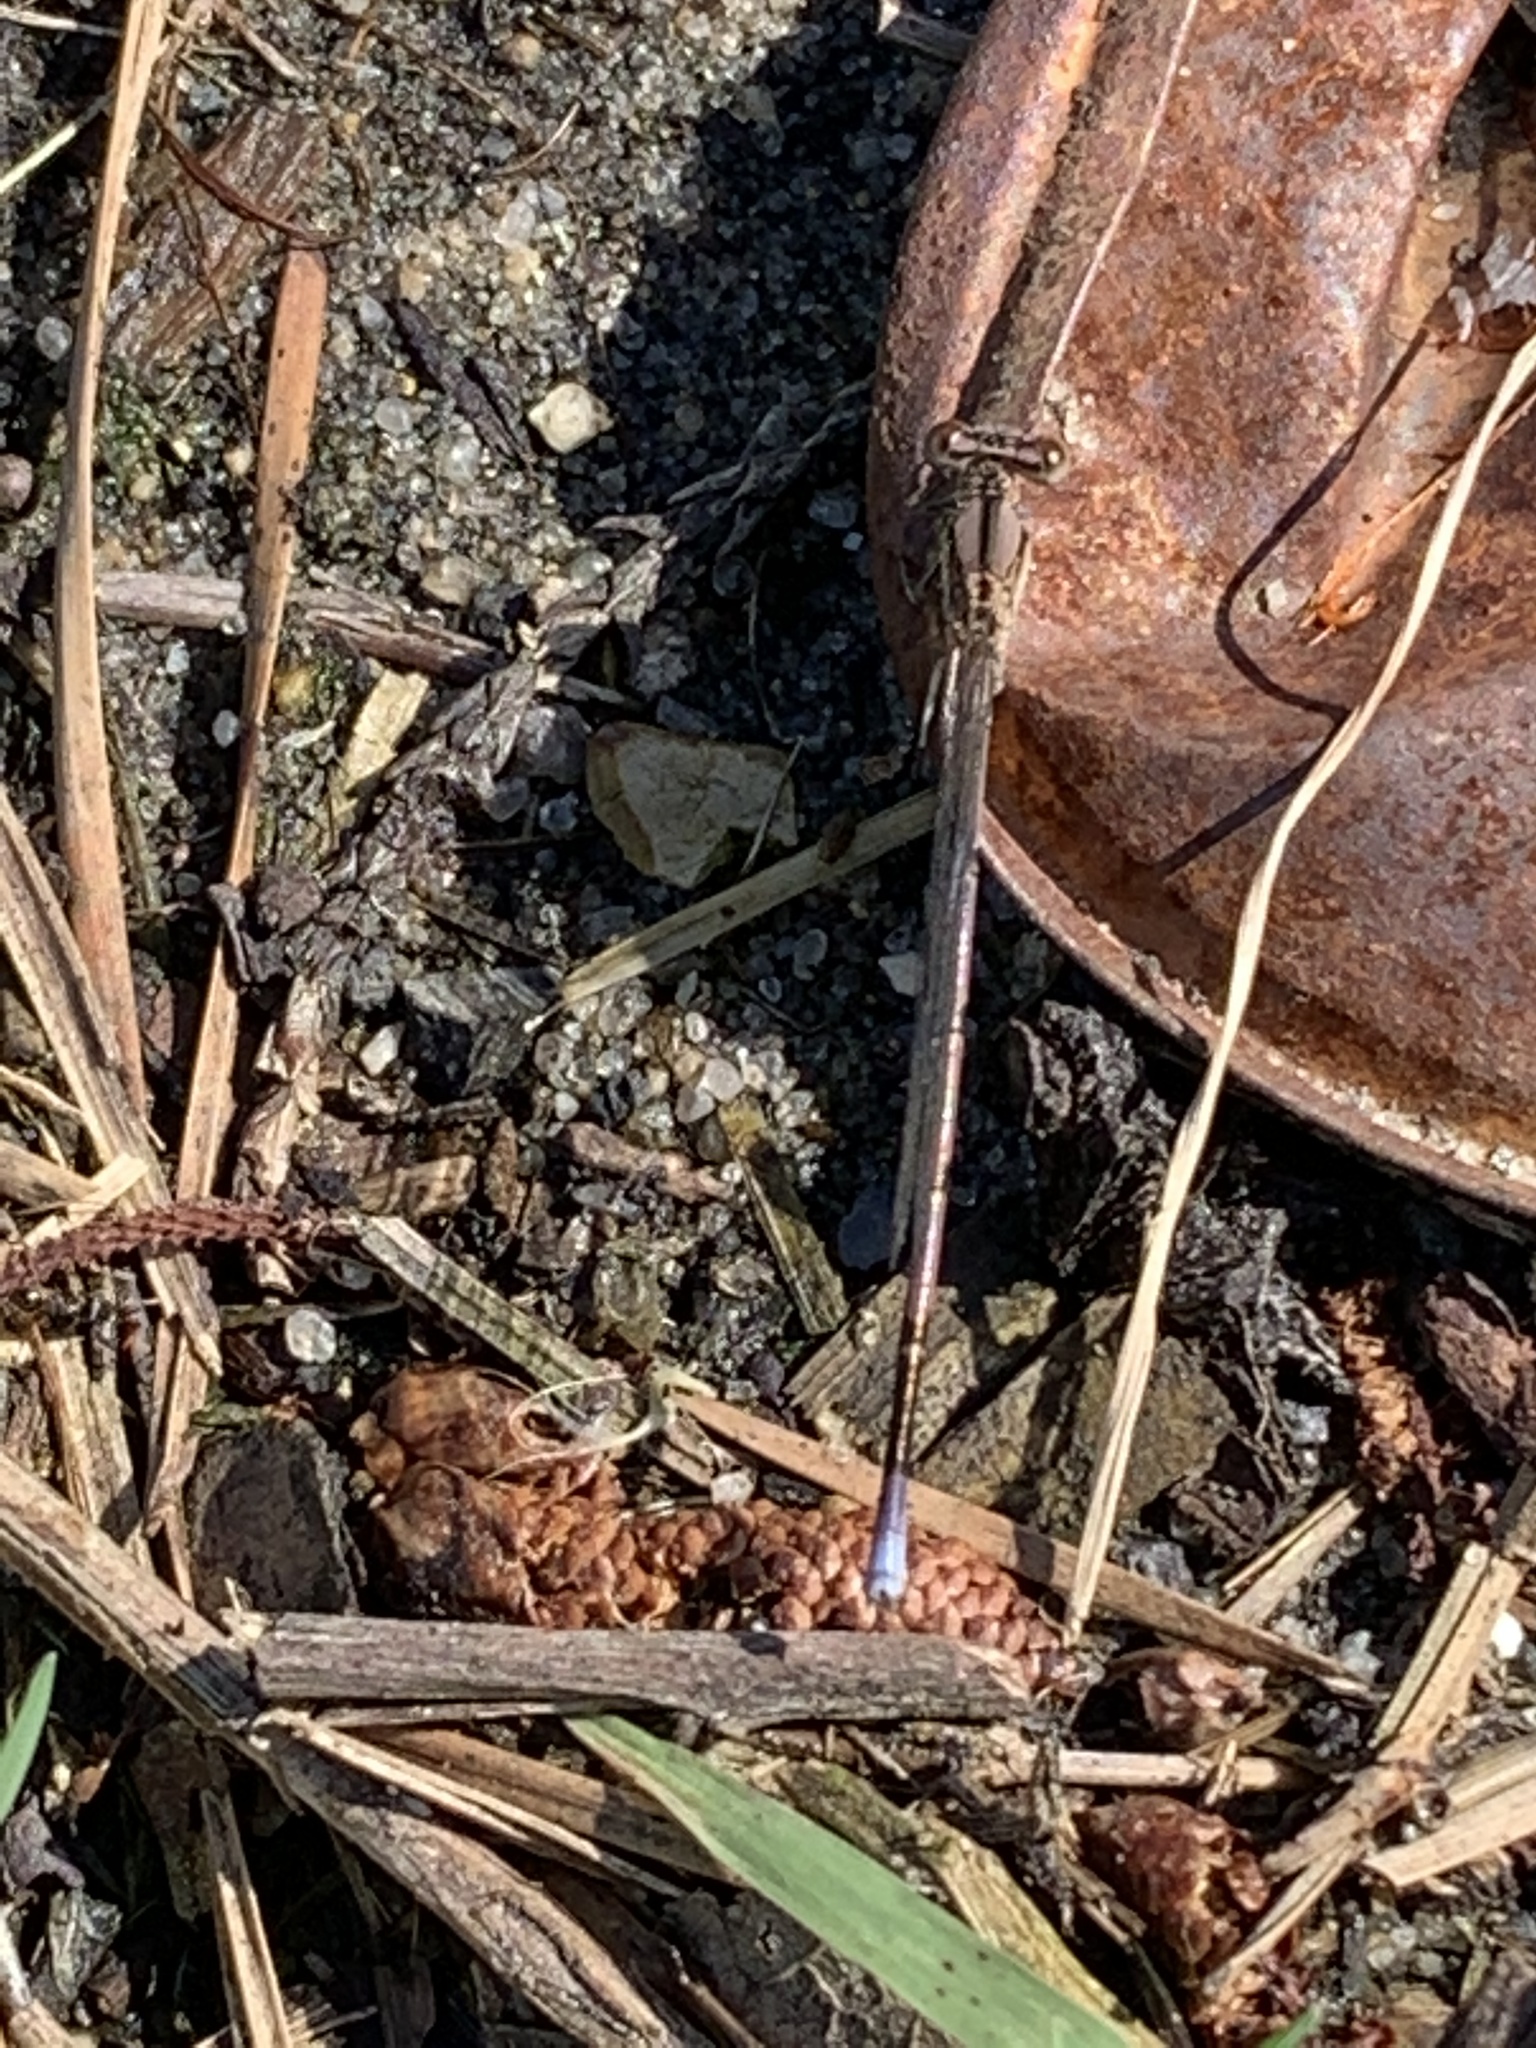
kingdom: Animalia
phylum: Arthropoda
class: Insecta
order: Odonata
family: Coenagrionidae
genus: Argia
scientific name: Argia fumipennis
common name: Variable dancer
